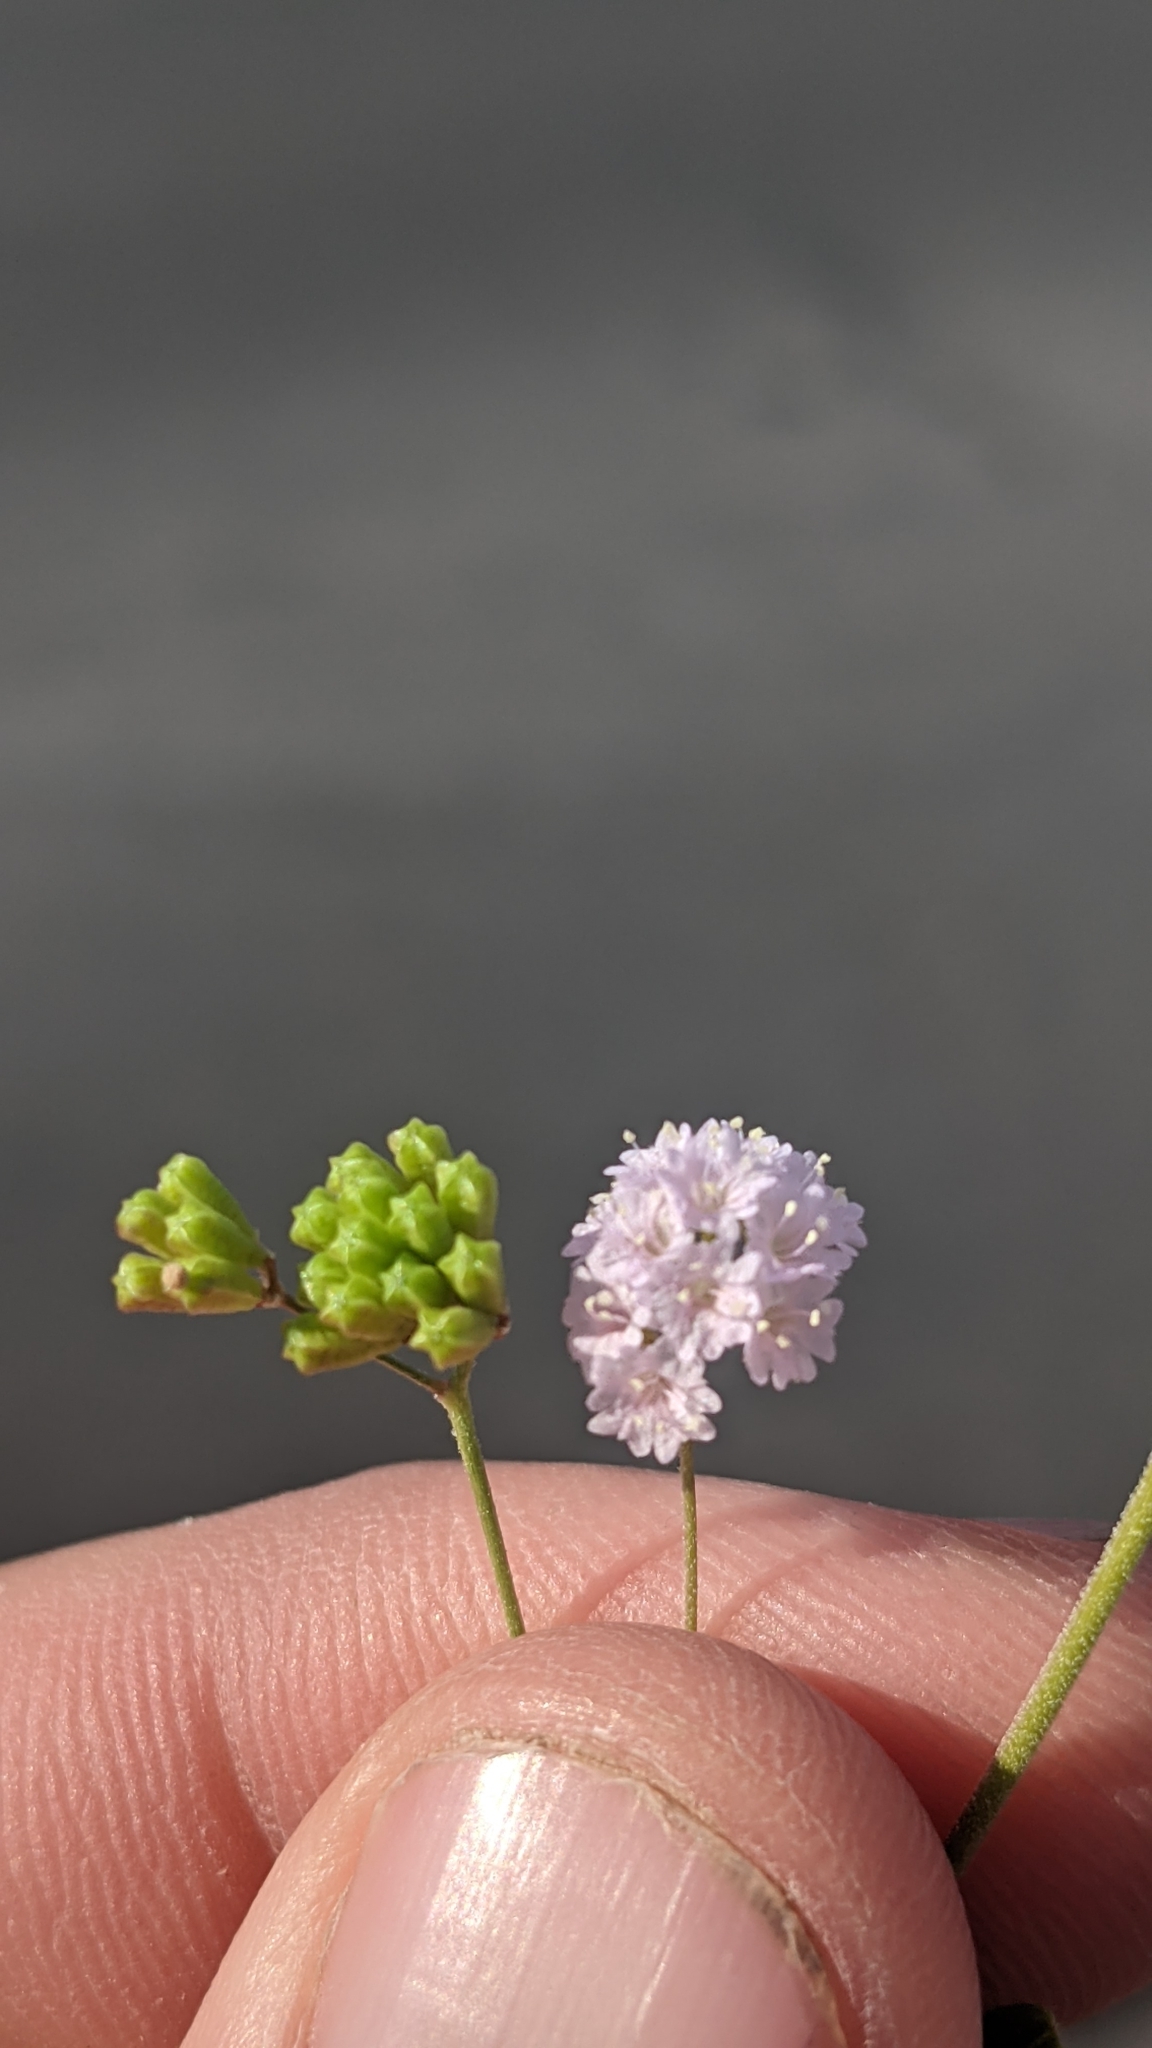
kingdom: Plantae
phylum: Tracheophyta
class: Magnoliopsida
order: Caryophyllales
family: Nyctaginaceae
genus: Boerhavia
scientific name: Boerhavia triquetra
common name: Creeping sticky-stem
